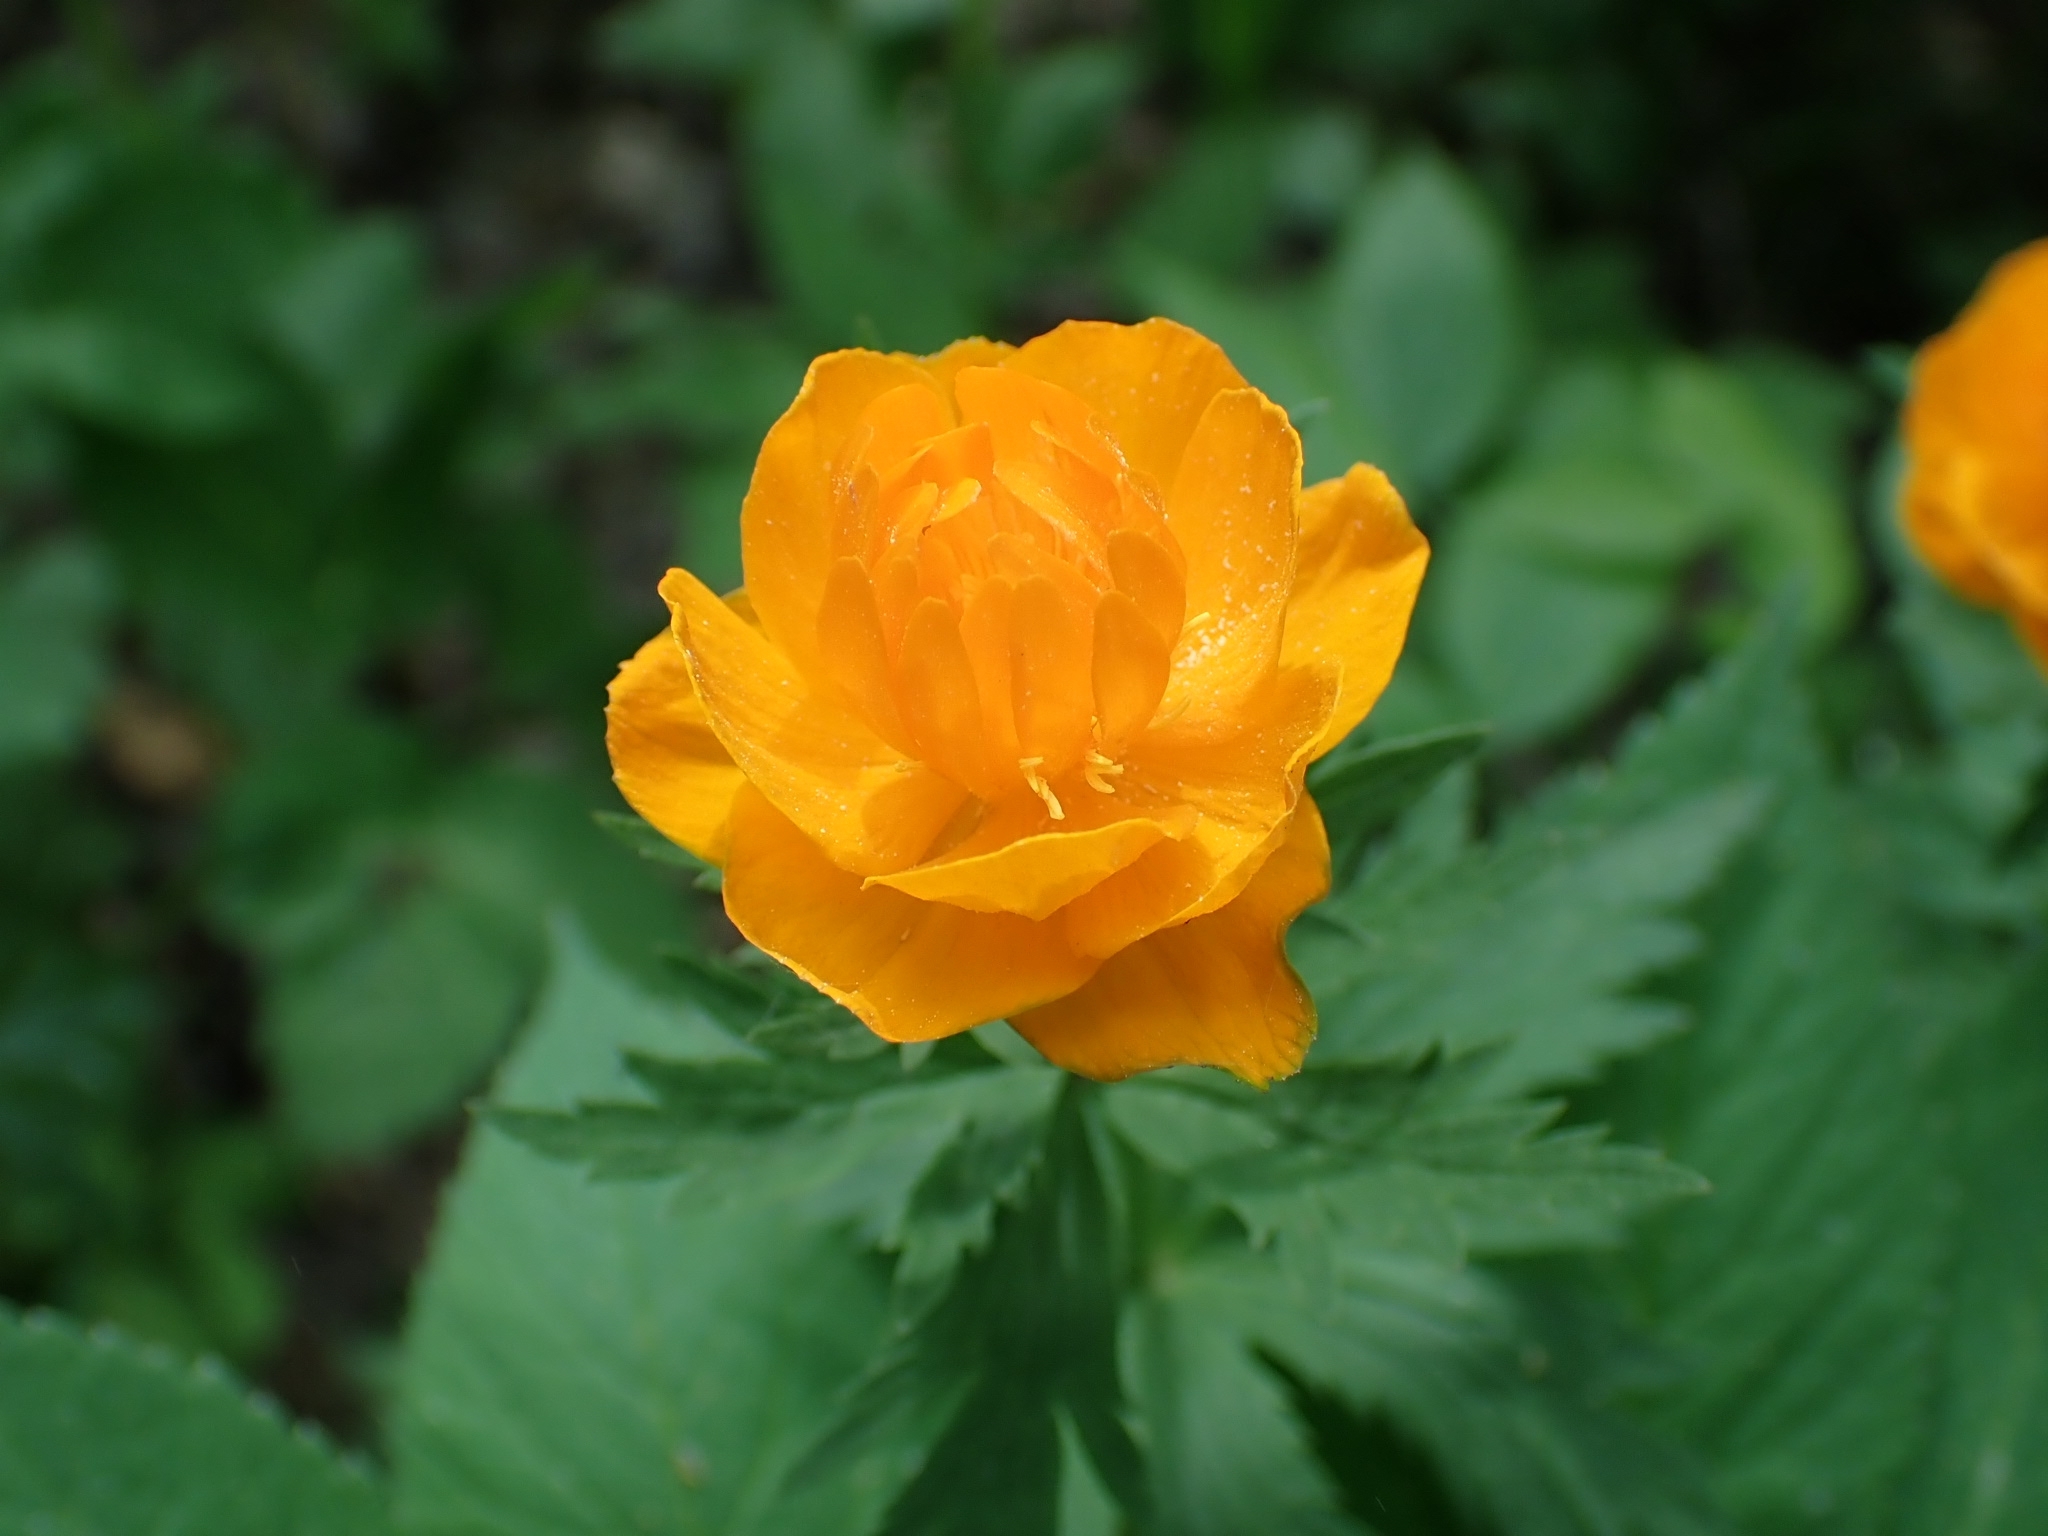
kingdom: Plantae
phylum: Tracheophyta
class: Magnoliopsida
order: Ranunculales
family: Ranunculaceae
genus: Trollius
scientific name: Trollius asiaticus
